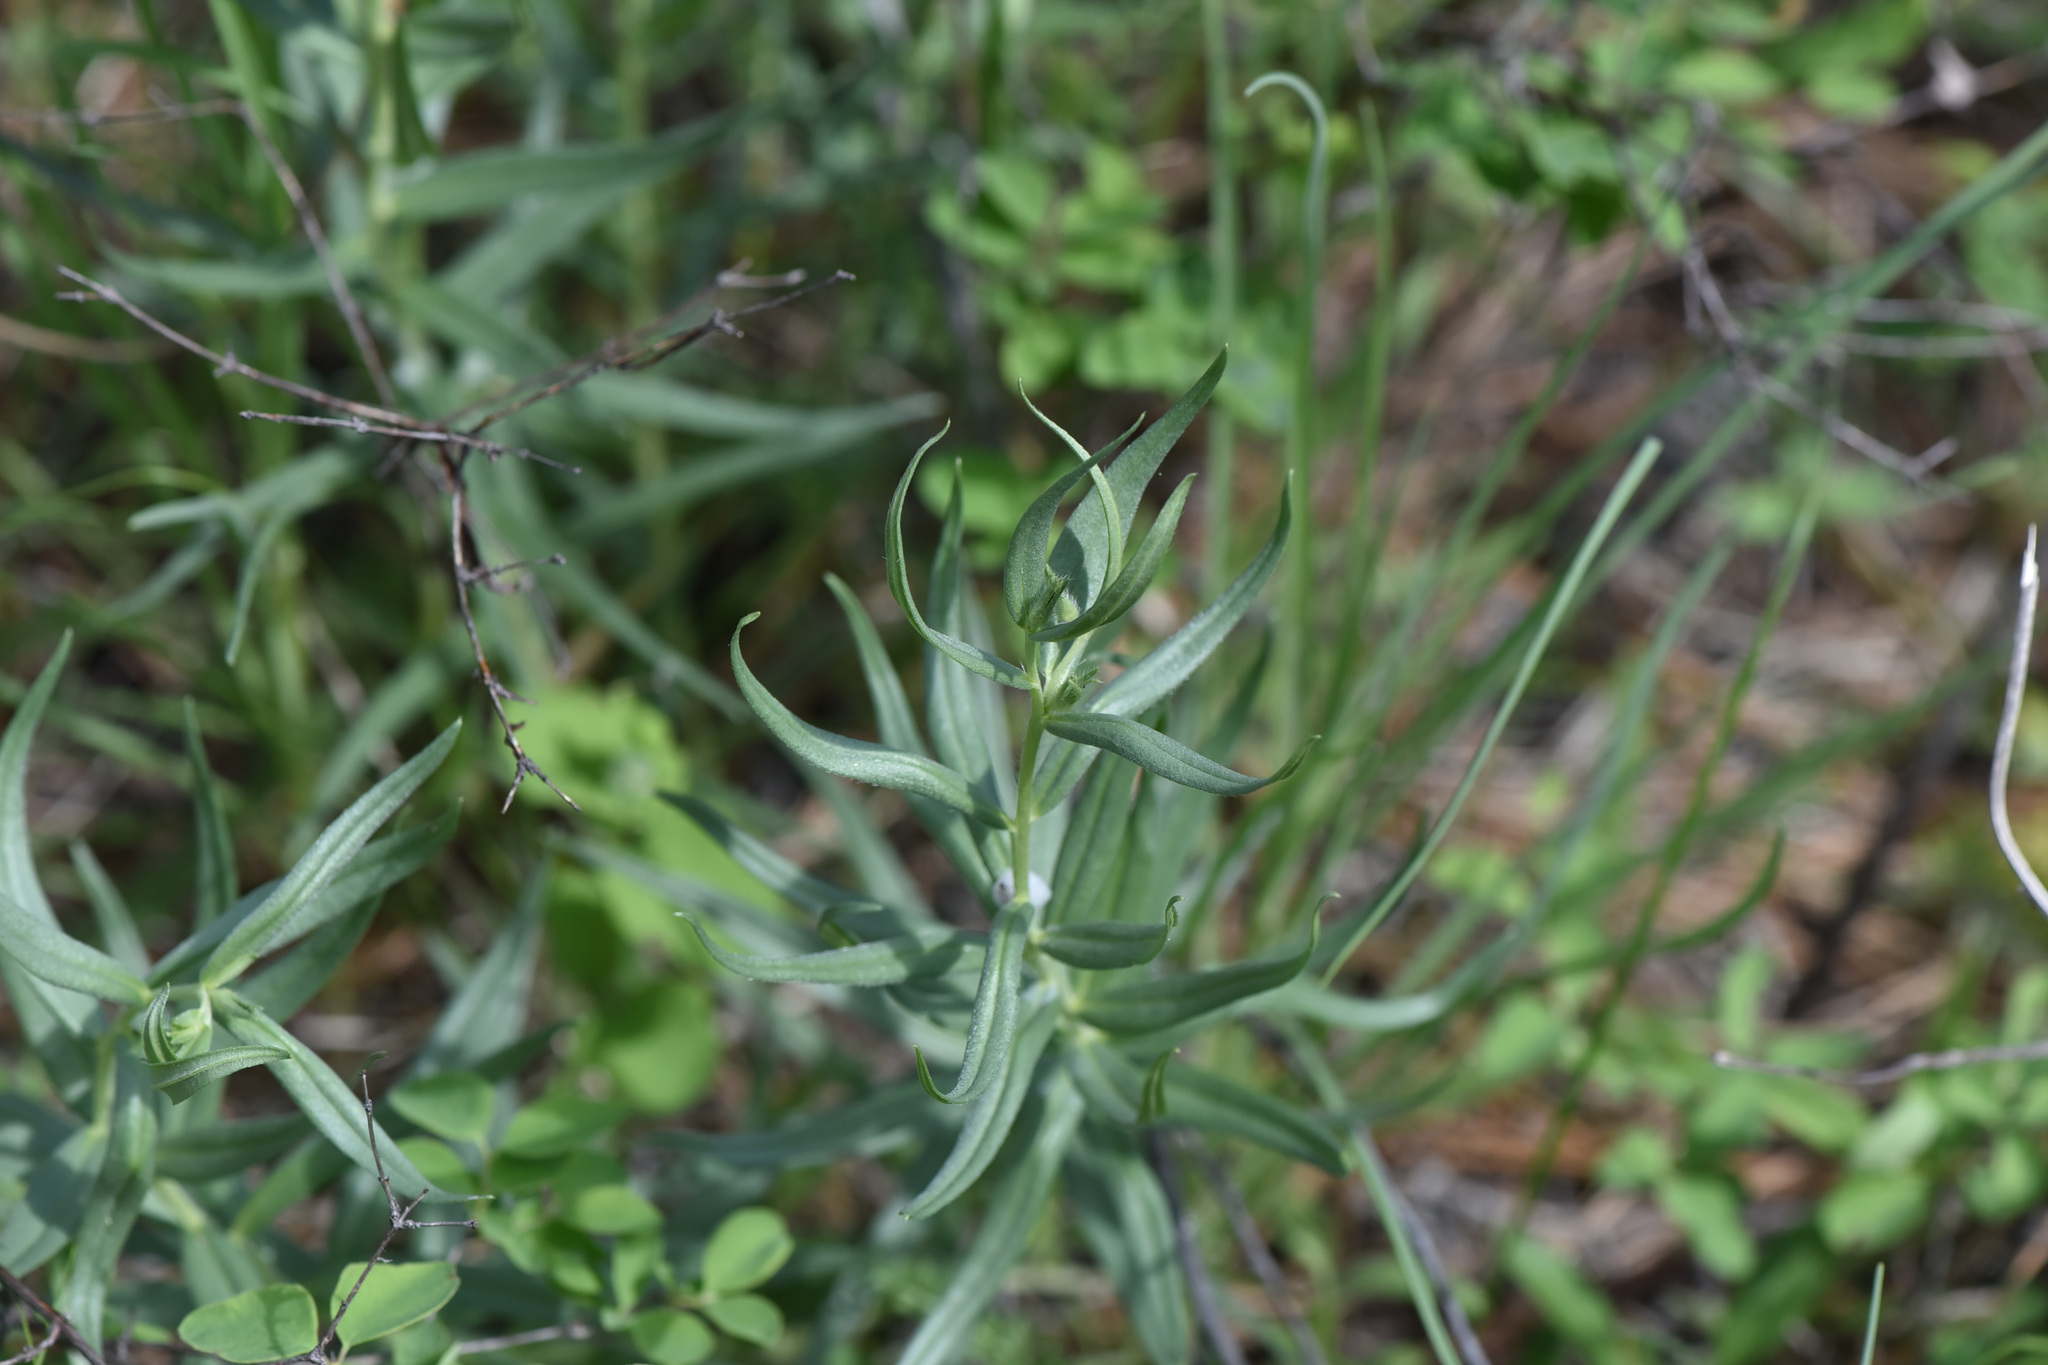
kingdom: Plantae
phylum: Tracheophyta
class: Magnoliopsida
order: Boraginales
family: Boraginaceae
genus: Lithospermum
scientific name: Lithospermum ruderale
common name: Western gromwell
